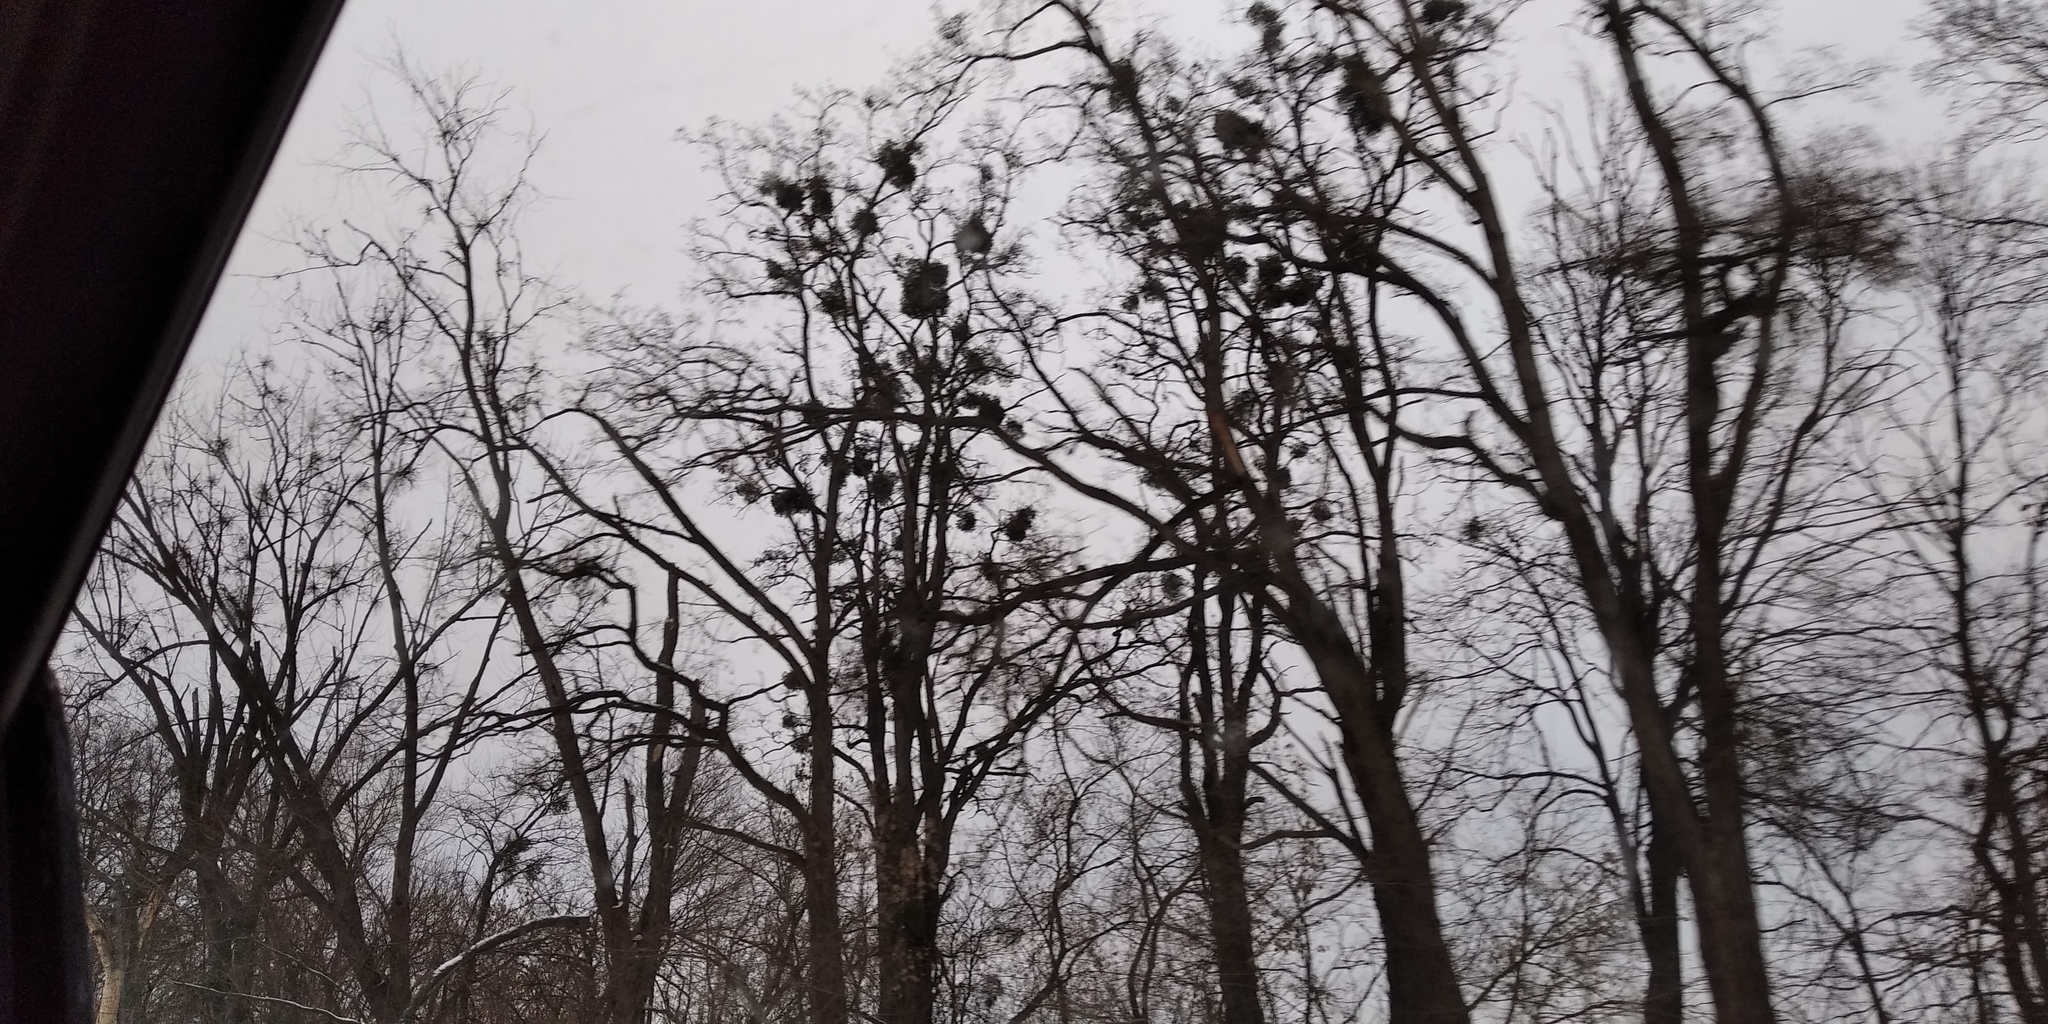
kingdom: Plantae
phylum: Tracheophyta
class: Magnoliopsida
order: Santalales
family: Viscaceae
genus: Viscum
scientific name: Viscum album
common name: Mistletoe
